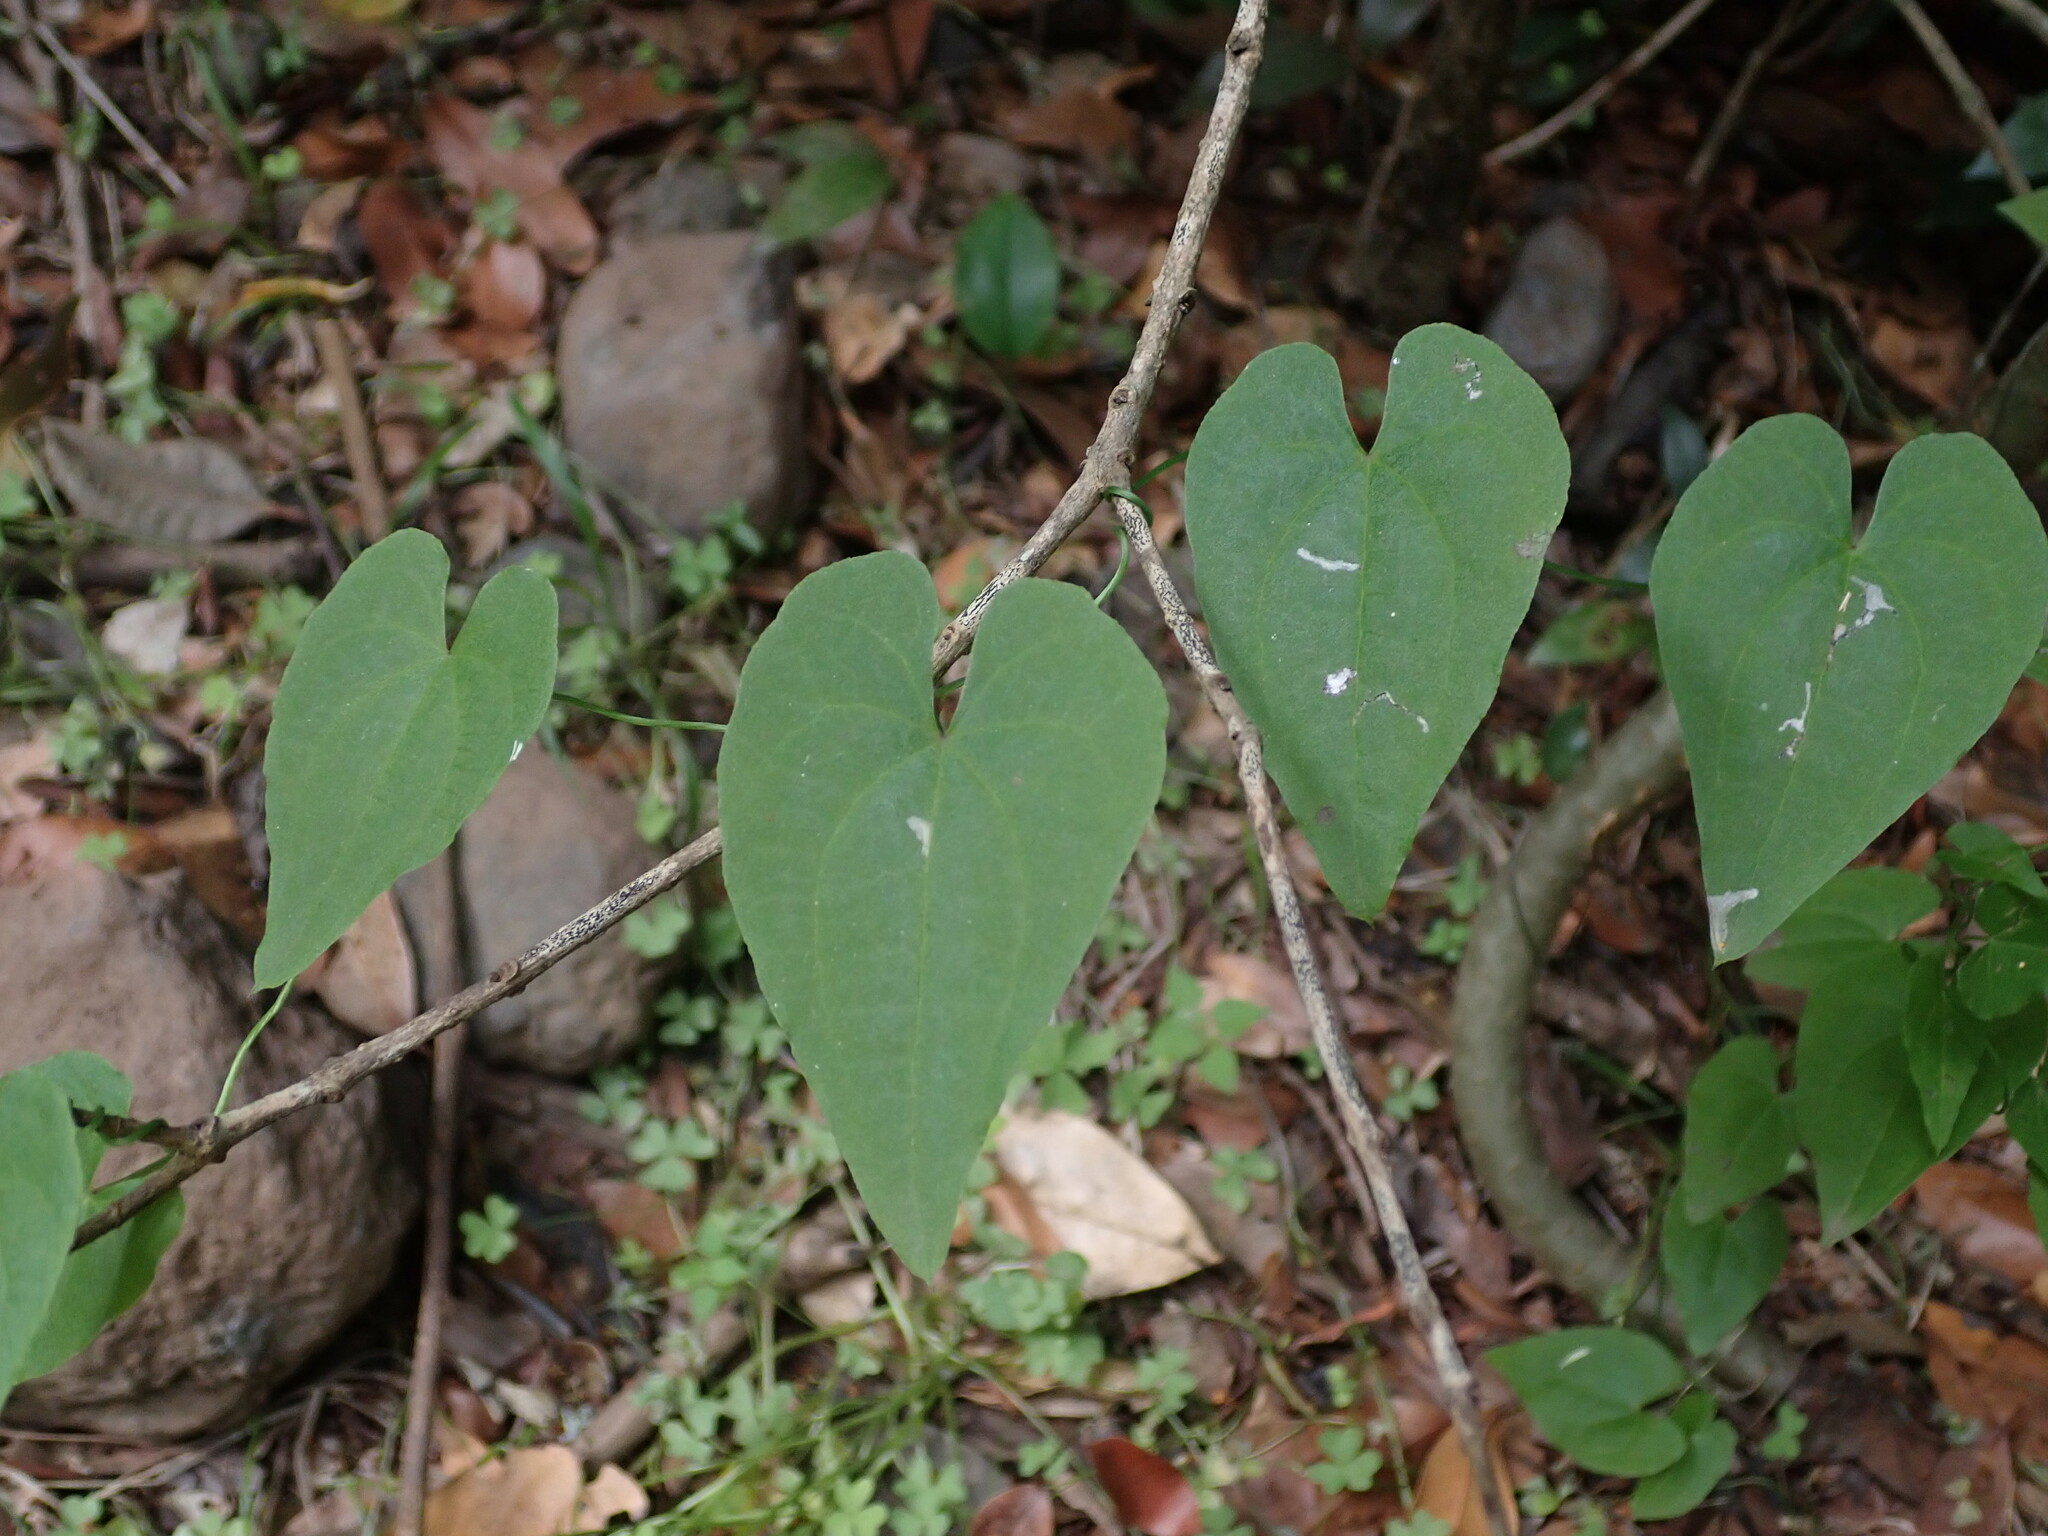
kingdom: Plantae
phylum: Tracheophyta
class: Liliopsida
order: Dioscoreales
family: Dioscoreaceae
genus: Dioscorea
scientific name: Dioscorea communis
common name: Black-bindweed
